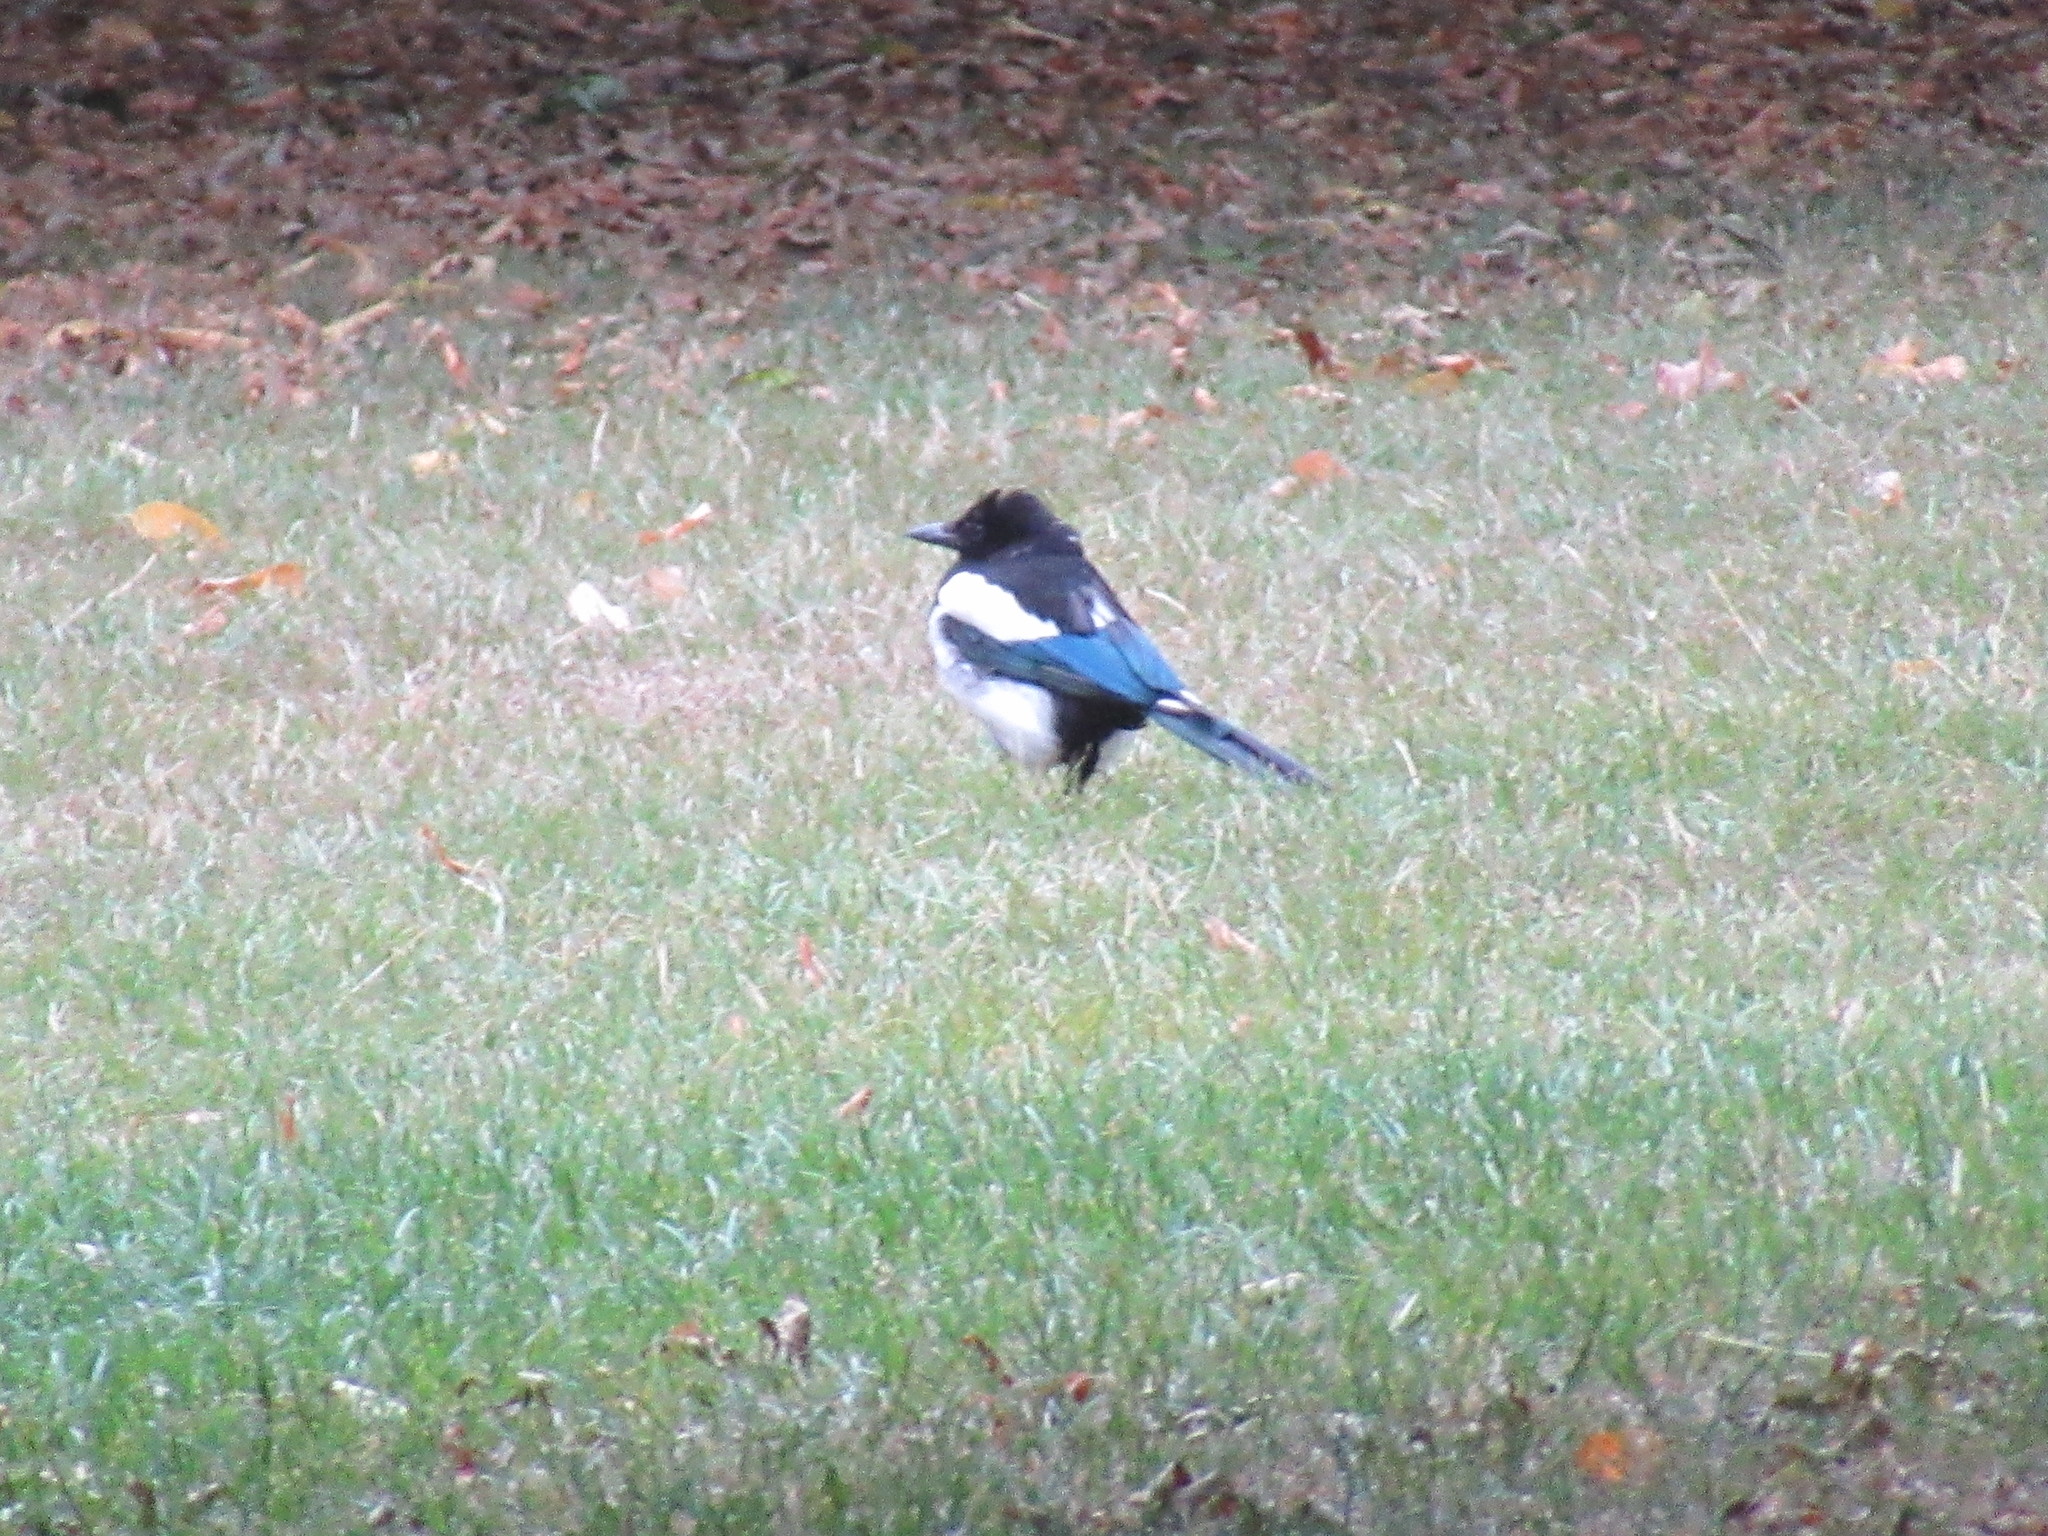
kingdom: Animalia
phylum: Chordata
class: Aves
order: Passeriformes
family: Corvidae
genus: Pica
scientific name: Pica pica
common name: Eurasian magpie
